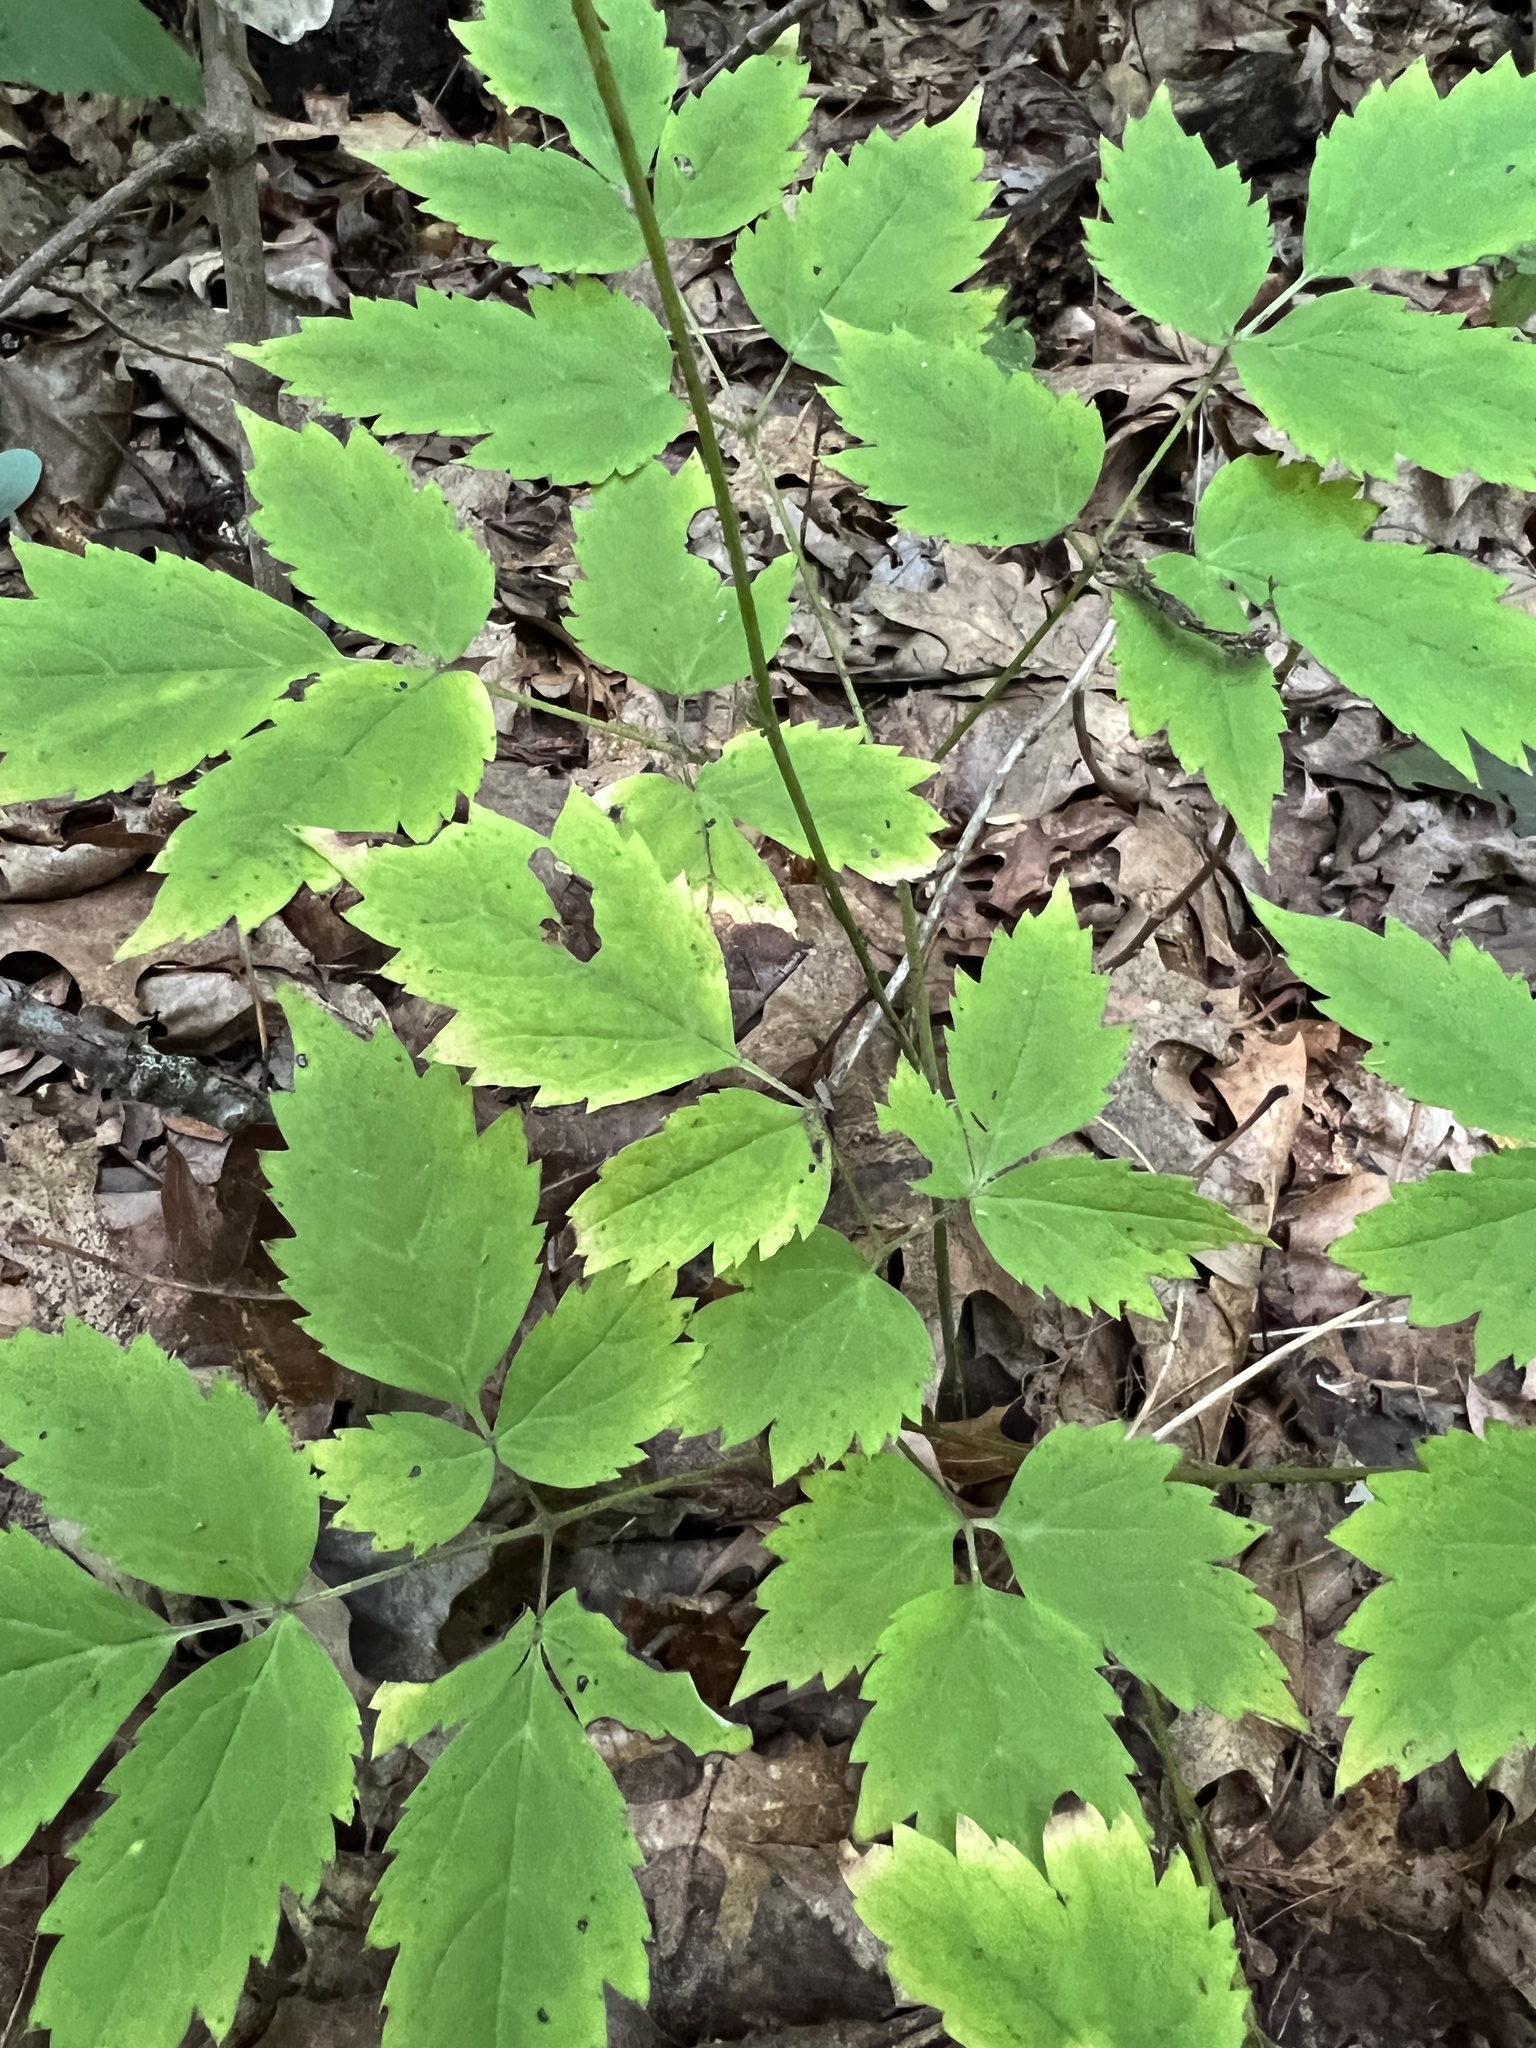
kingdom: Plantae
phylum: Tracheophyta
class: Magnoliopsida
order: Ranunculales
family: Ranunculaceae
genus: Actaea
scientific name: Actaea pachypoda
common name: Doll's-eyes
